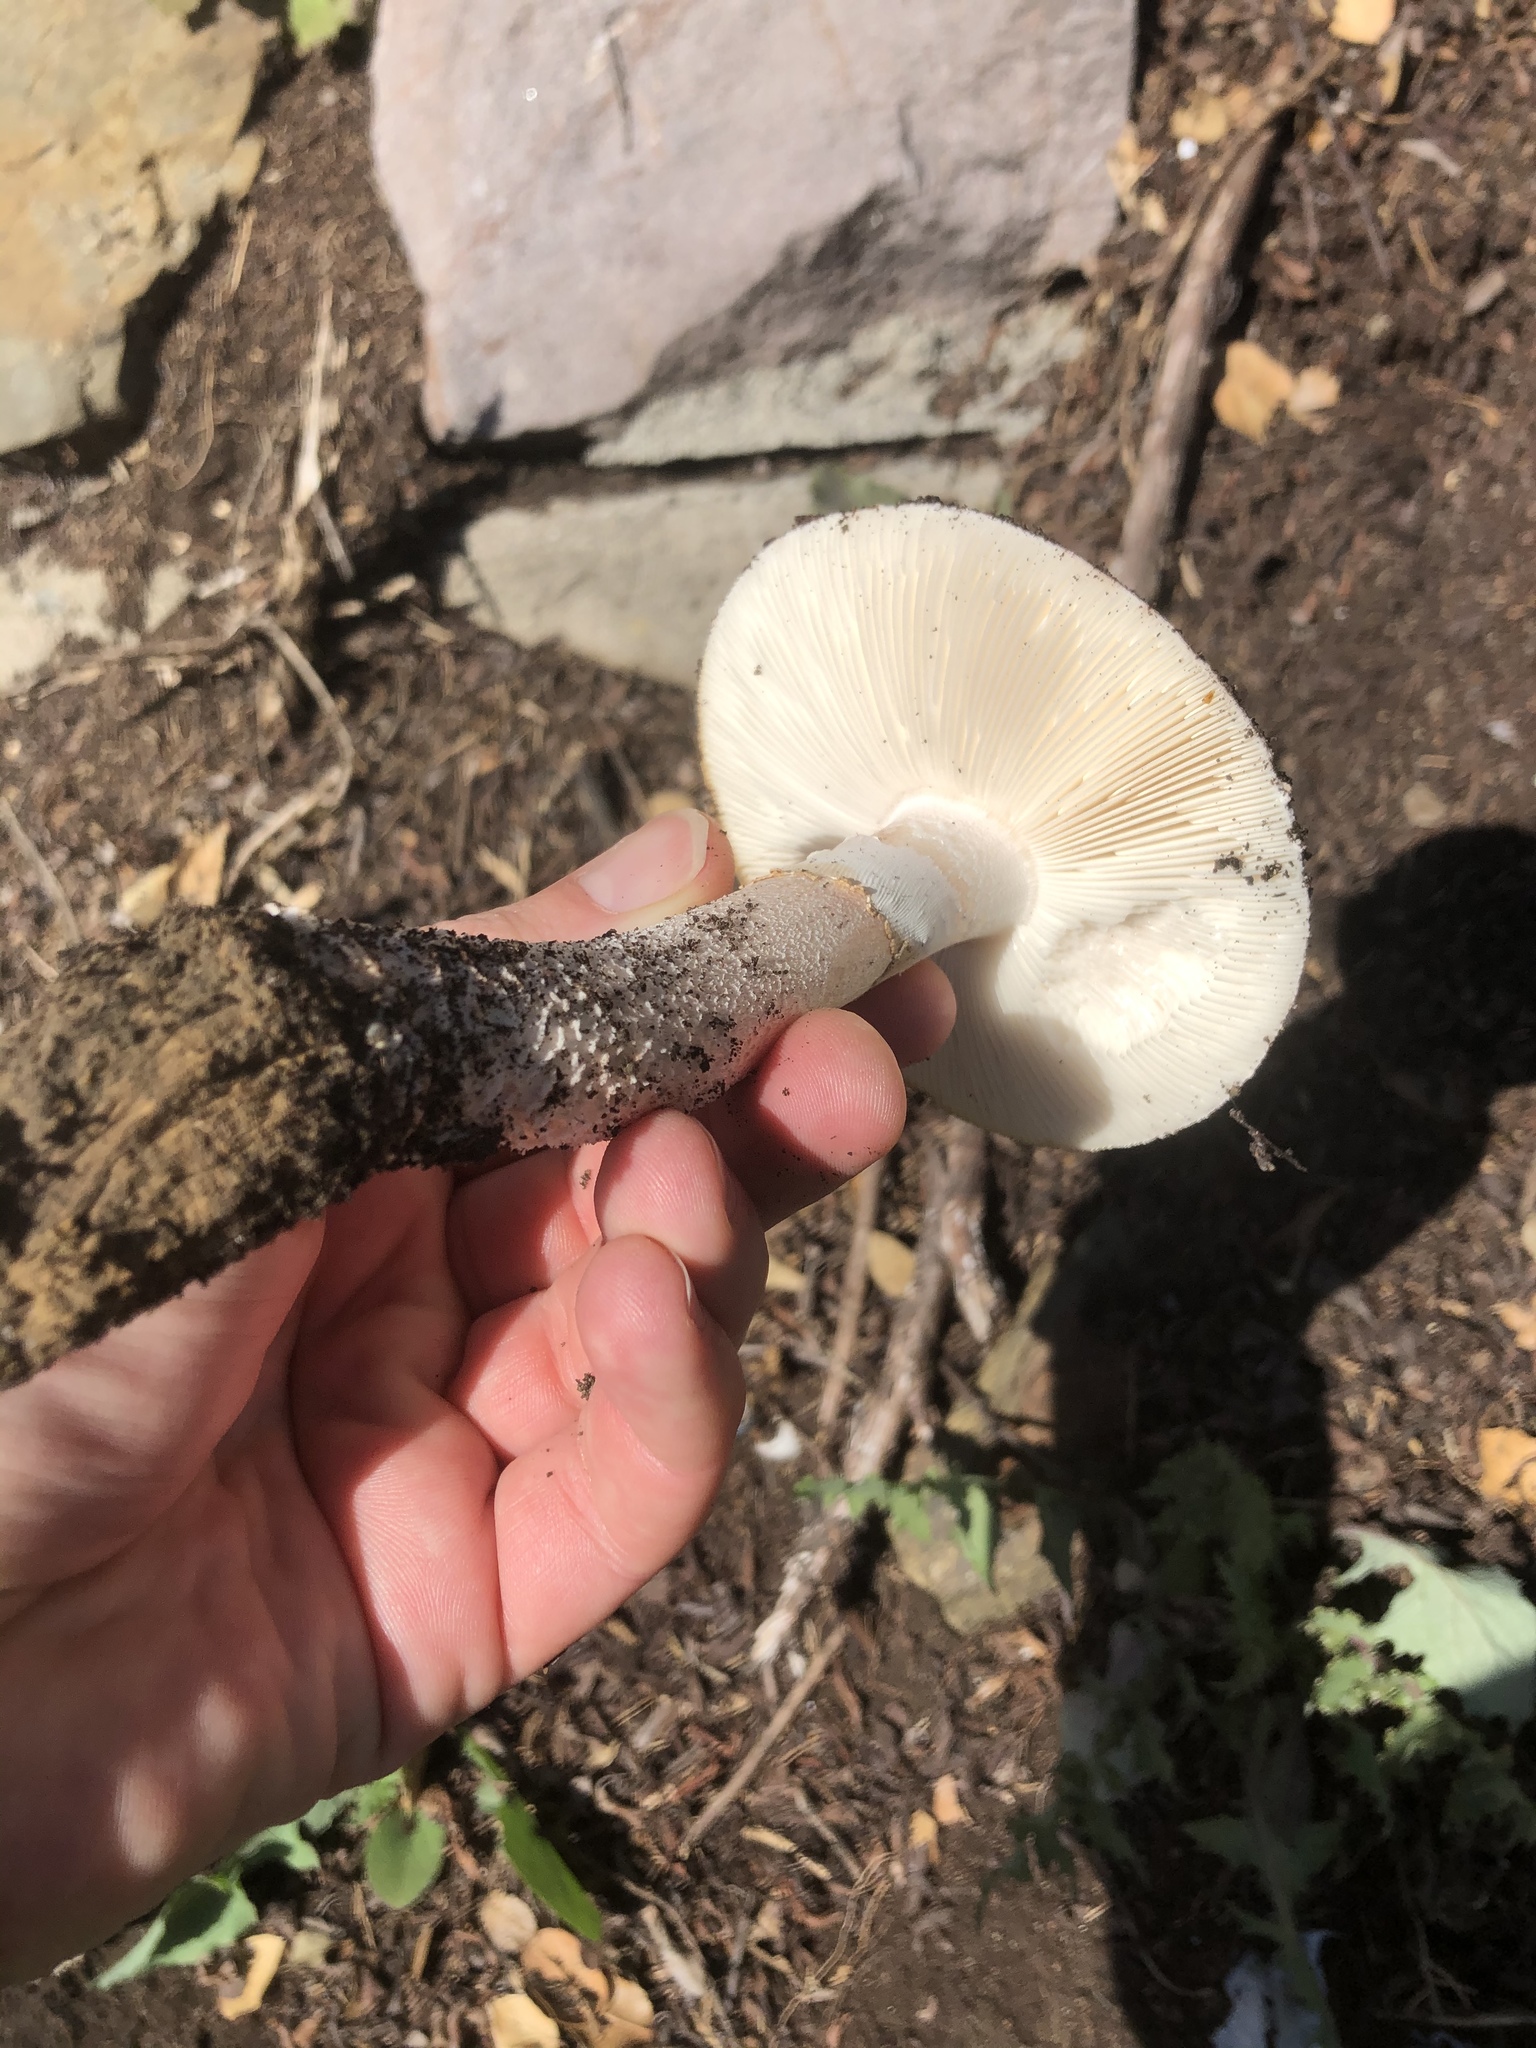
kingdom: Fungi
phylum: Basidiomycota
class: Agaricomycetes
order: Agaricales
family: Amanitaceae
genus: Amanita
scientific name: Amanita ocreata
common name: Western destroying angel
